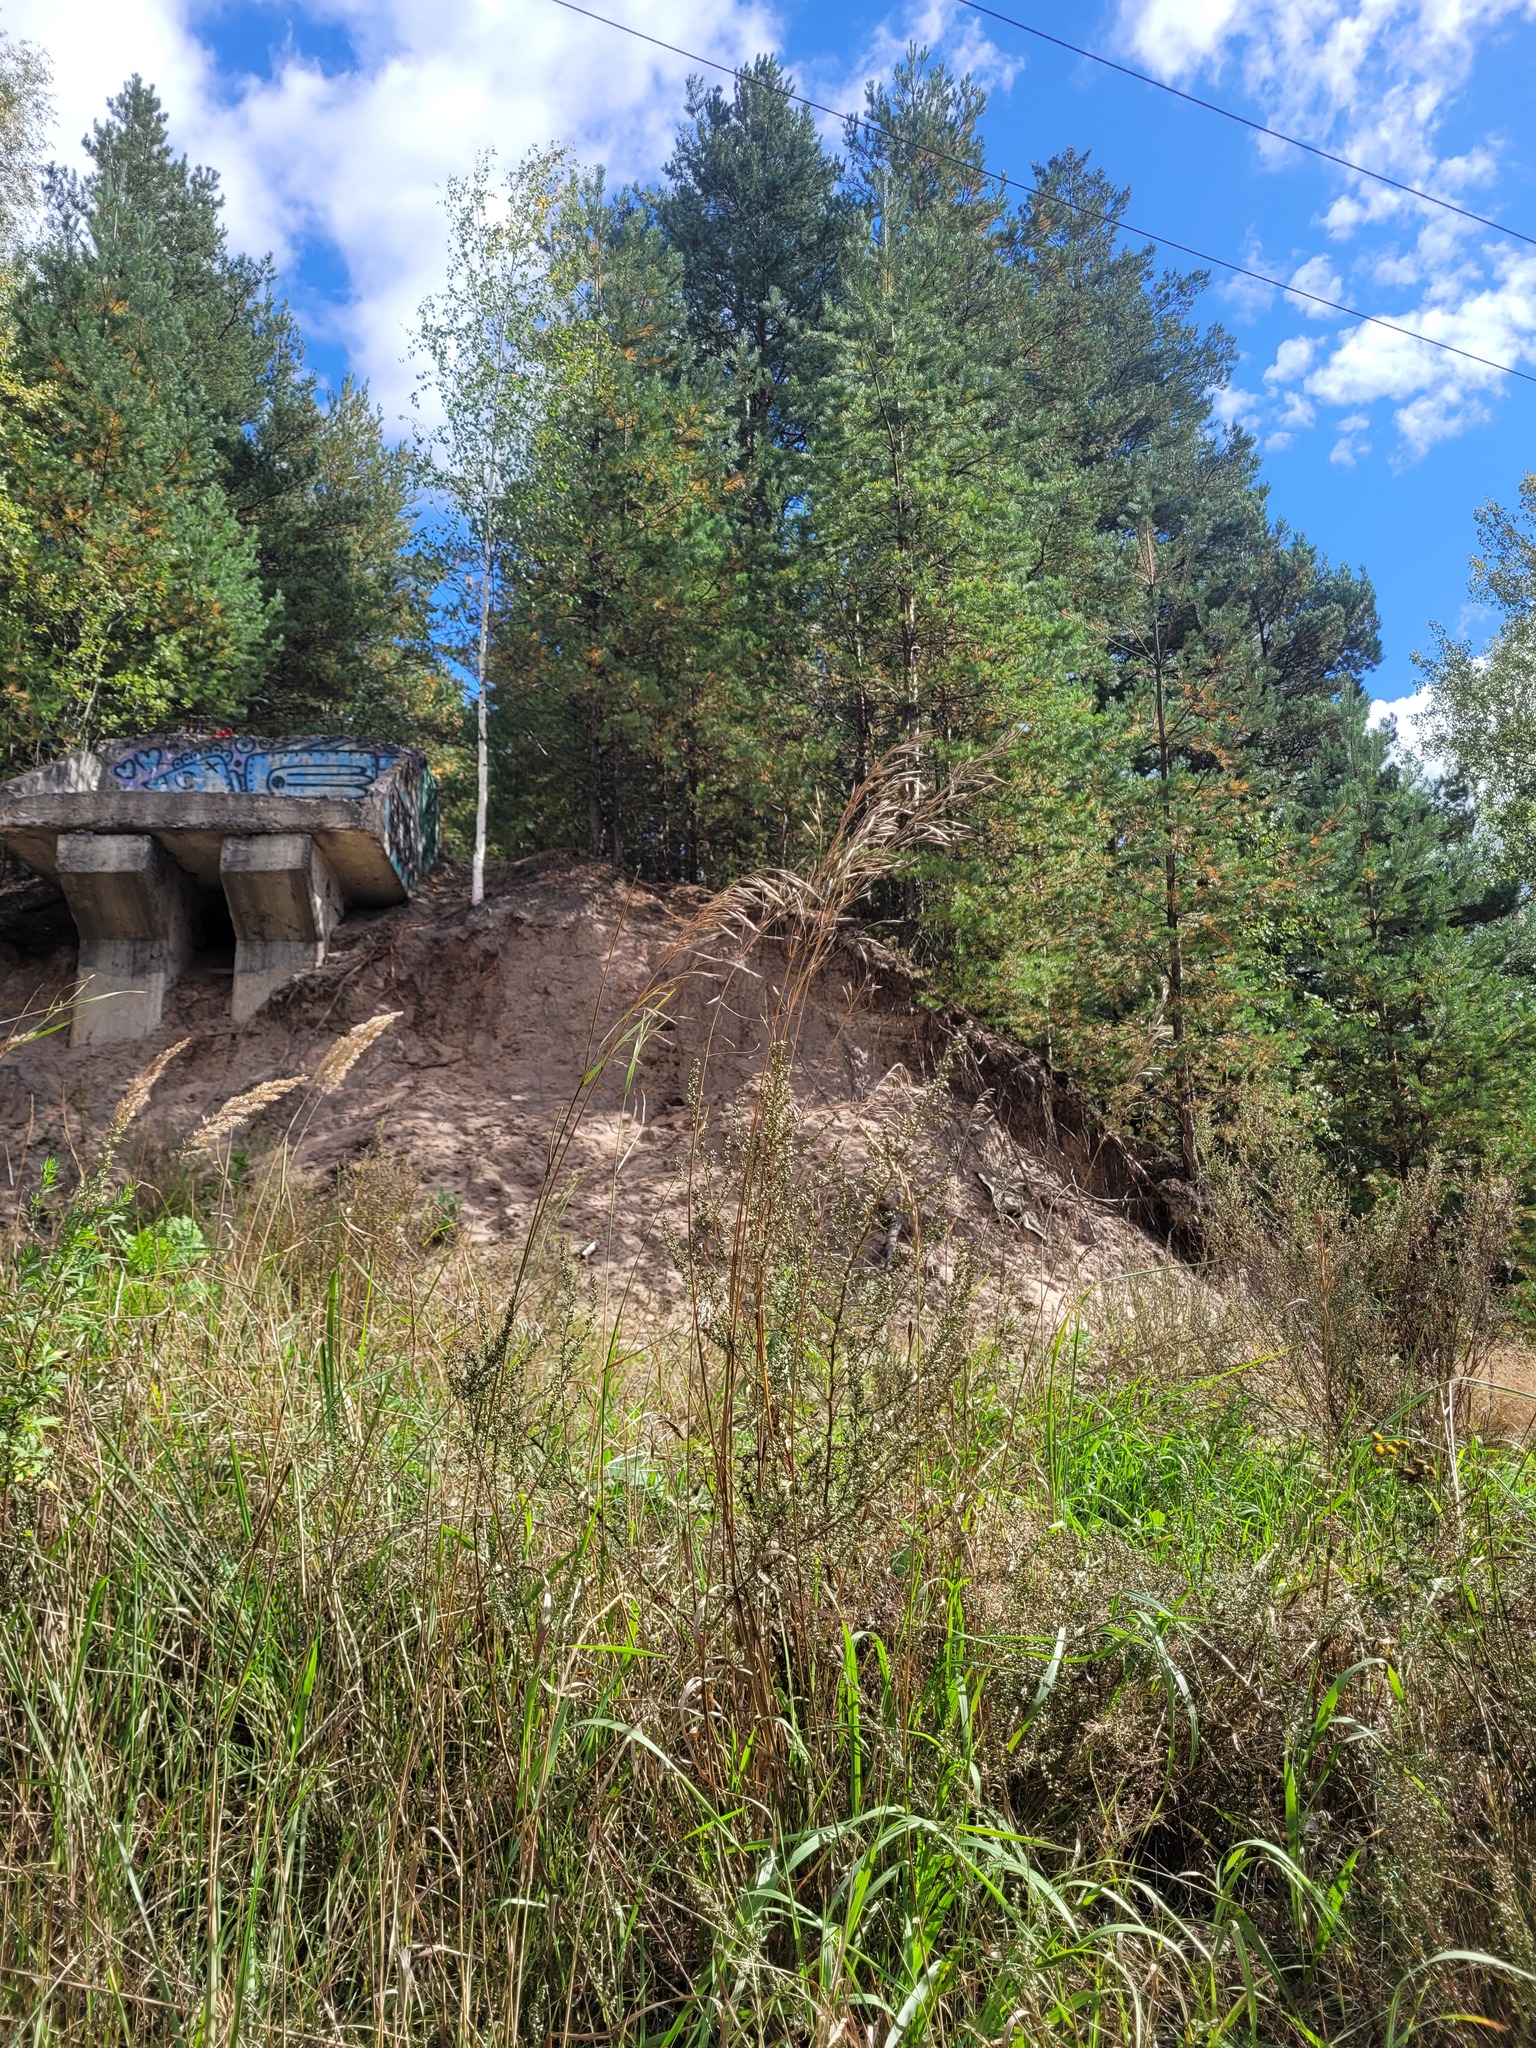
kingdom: Plantae
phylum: Tracheophyta
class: Liliopsida
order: Poales
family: Poaceae
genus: Bromus
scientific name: Bromus inermis
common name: Smooth brome
